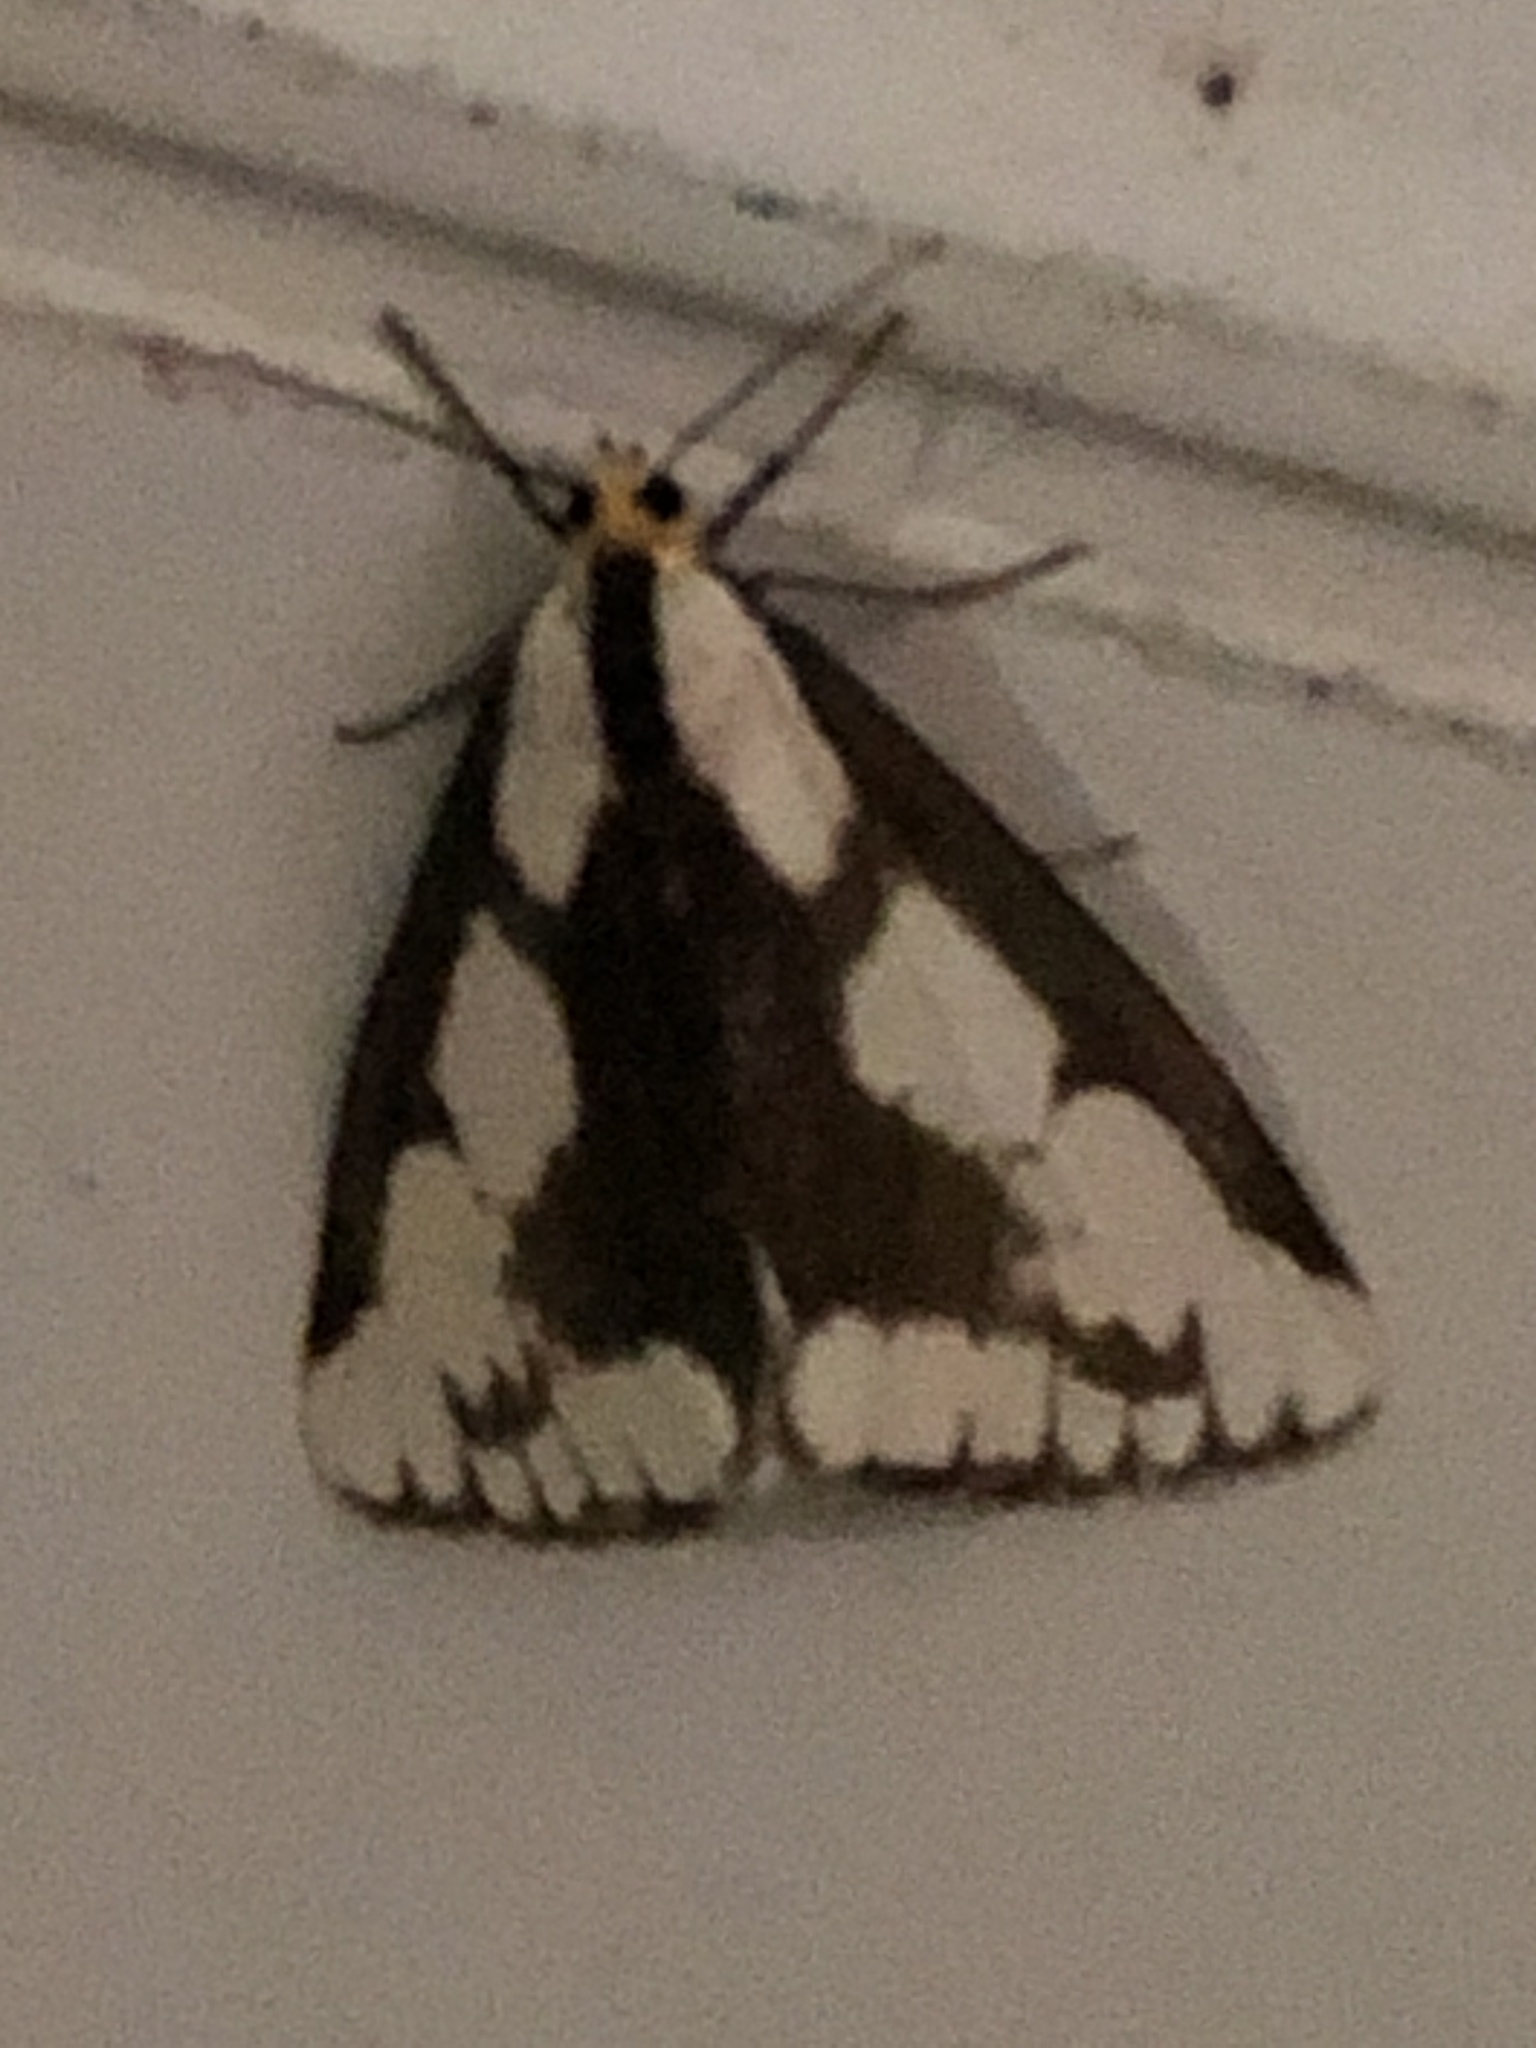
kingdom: Animalia
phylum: Arthropoda
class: Insecta
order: Lepidoptera
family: Erebidae
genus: Haploa
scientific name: Haploa lecontei
